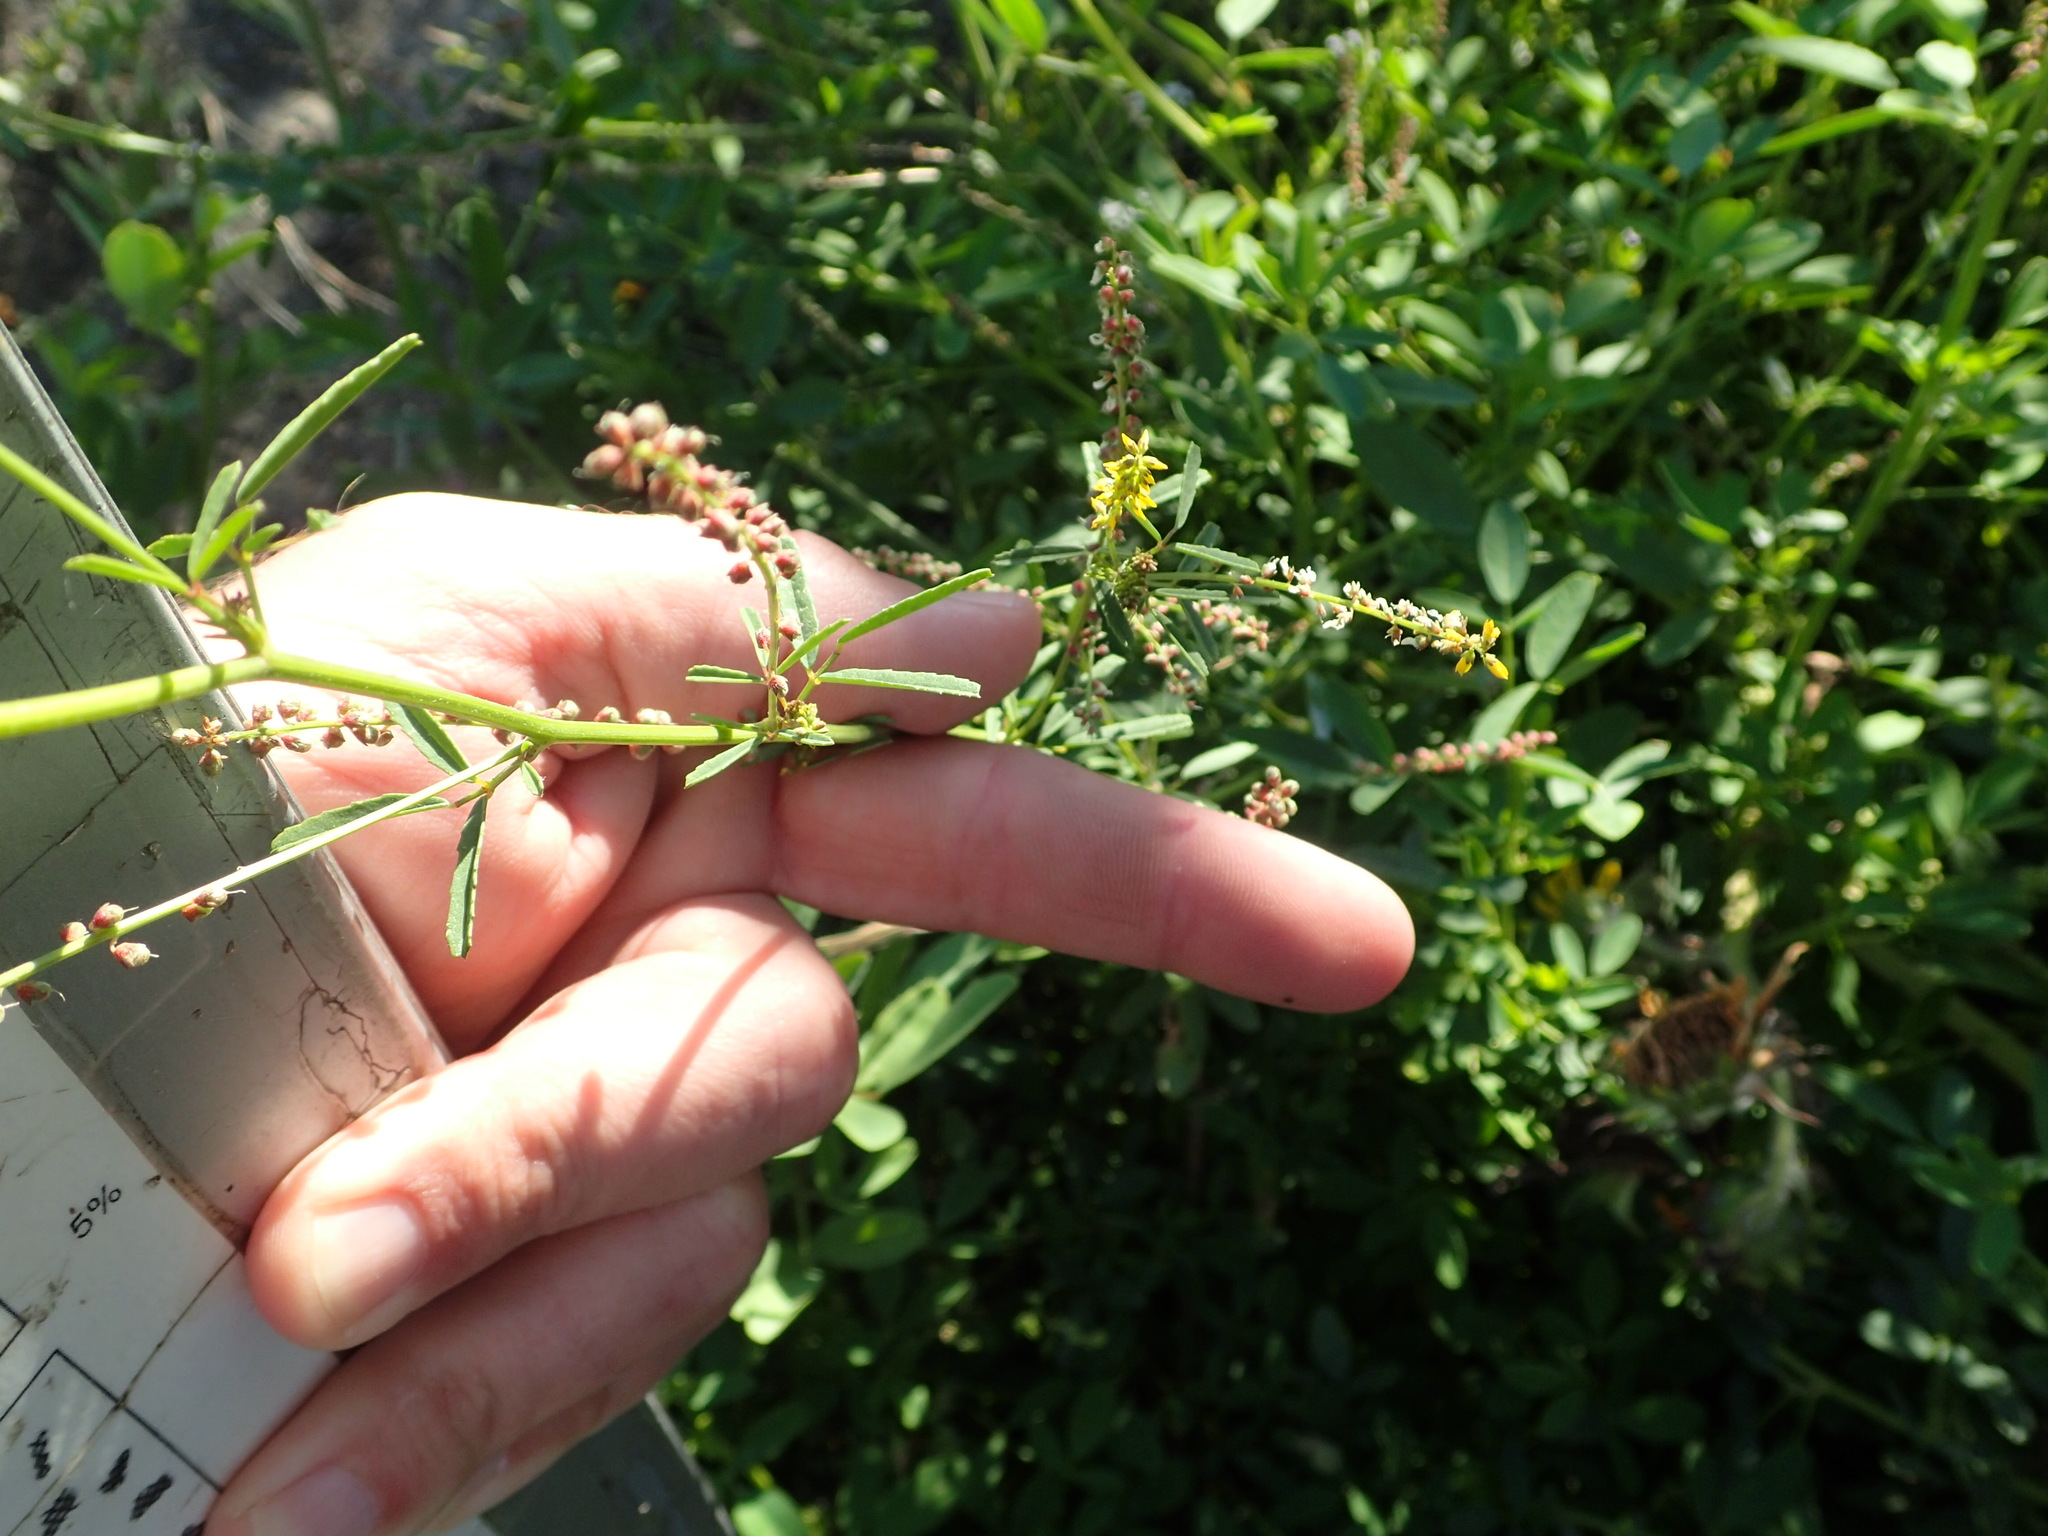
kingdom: Plantae
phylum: Tracheophyta
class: Magnoliopsida
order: Fabales
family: Fabaceae
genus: Melilotus
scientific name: Melilotus indicus
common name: Small melilot
